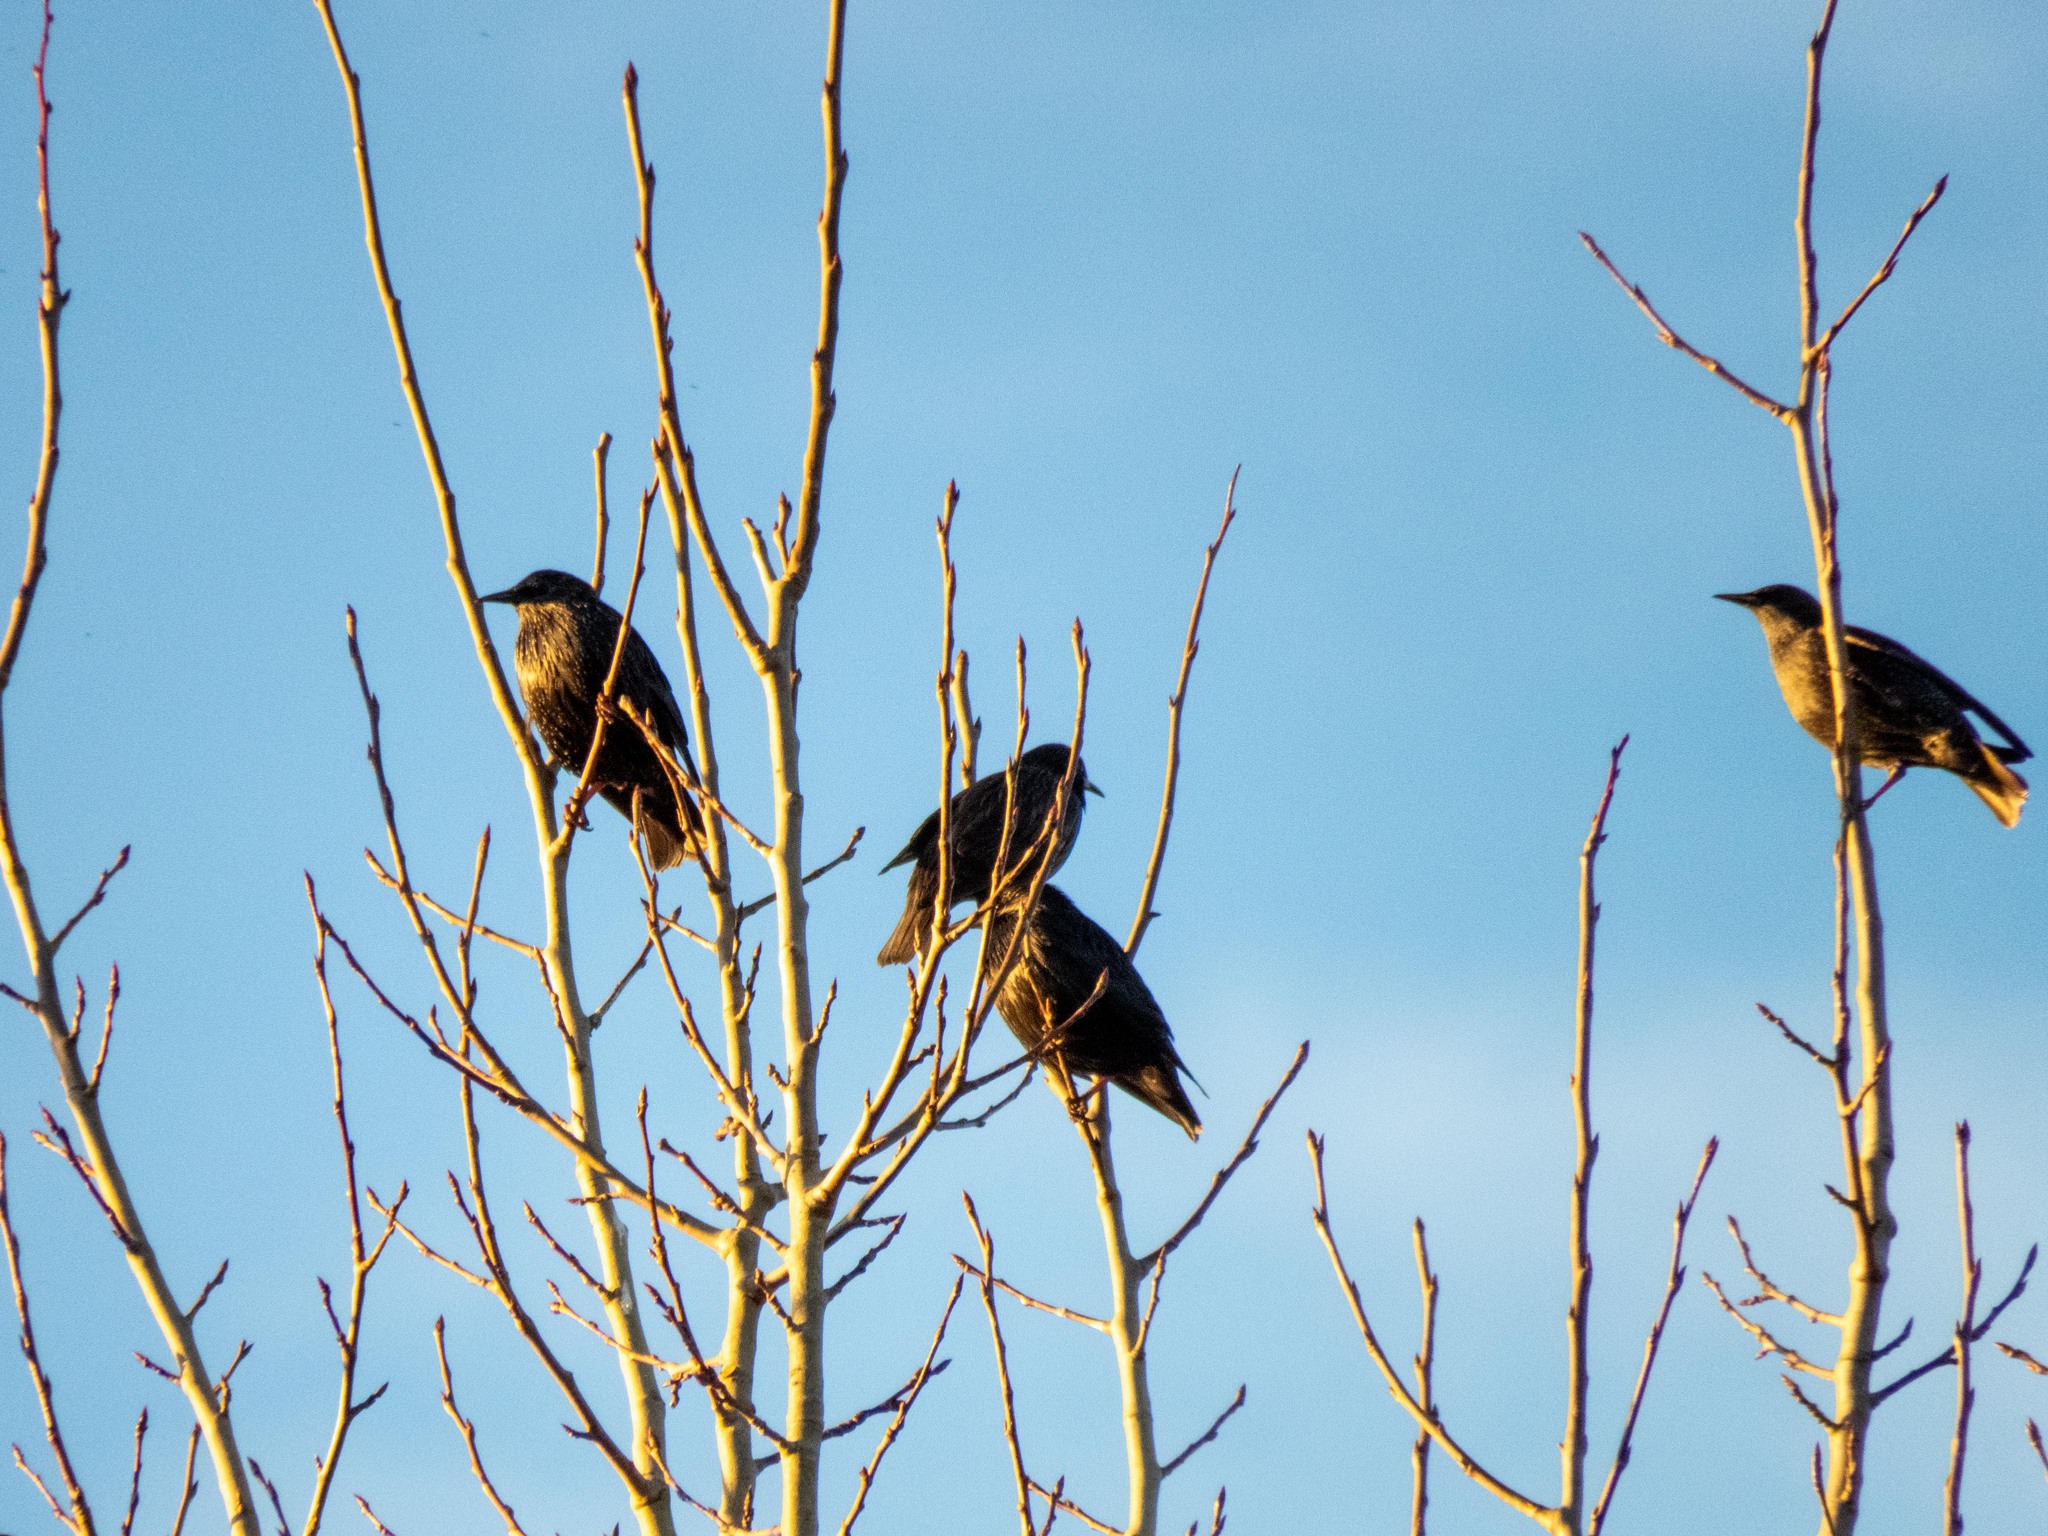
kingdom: Animalia
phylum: Chordata
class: Aves
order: Passeriformes
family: Sturnidae
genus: Sturnus
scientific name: Sturnus unicolor
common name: Spotless starling
